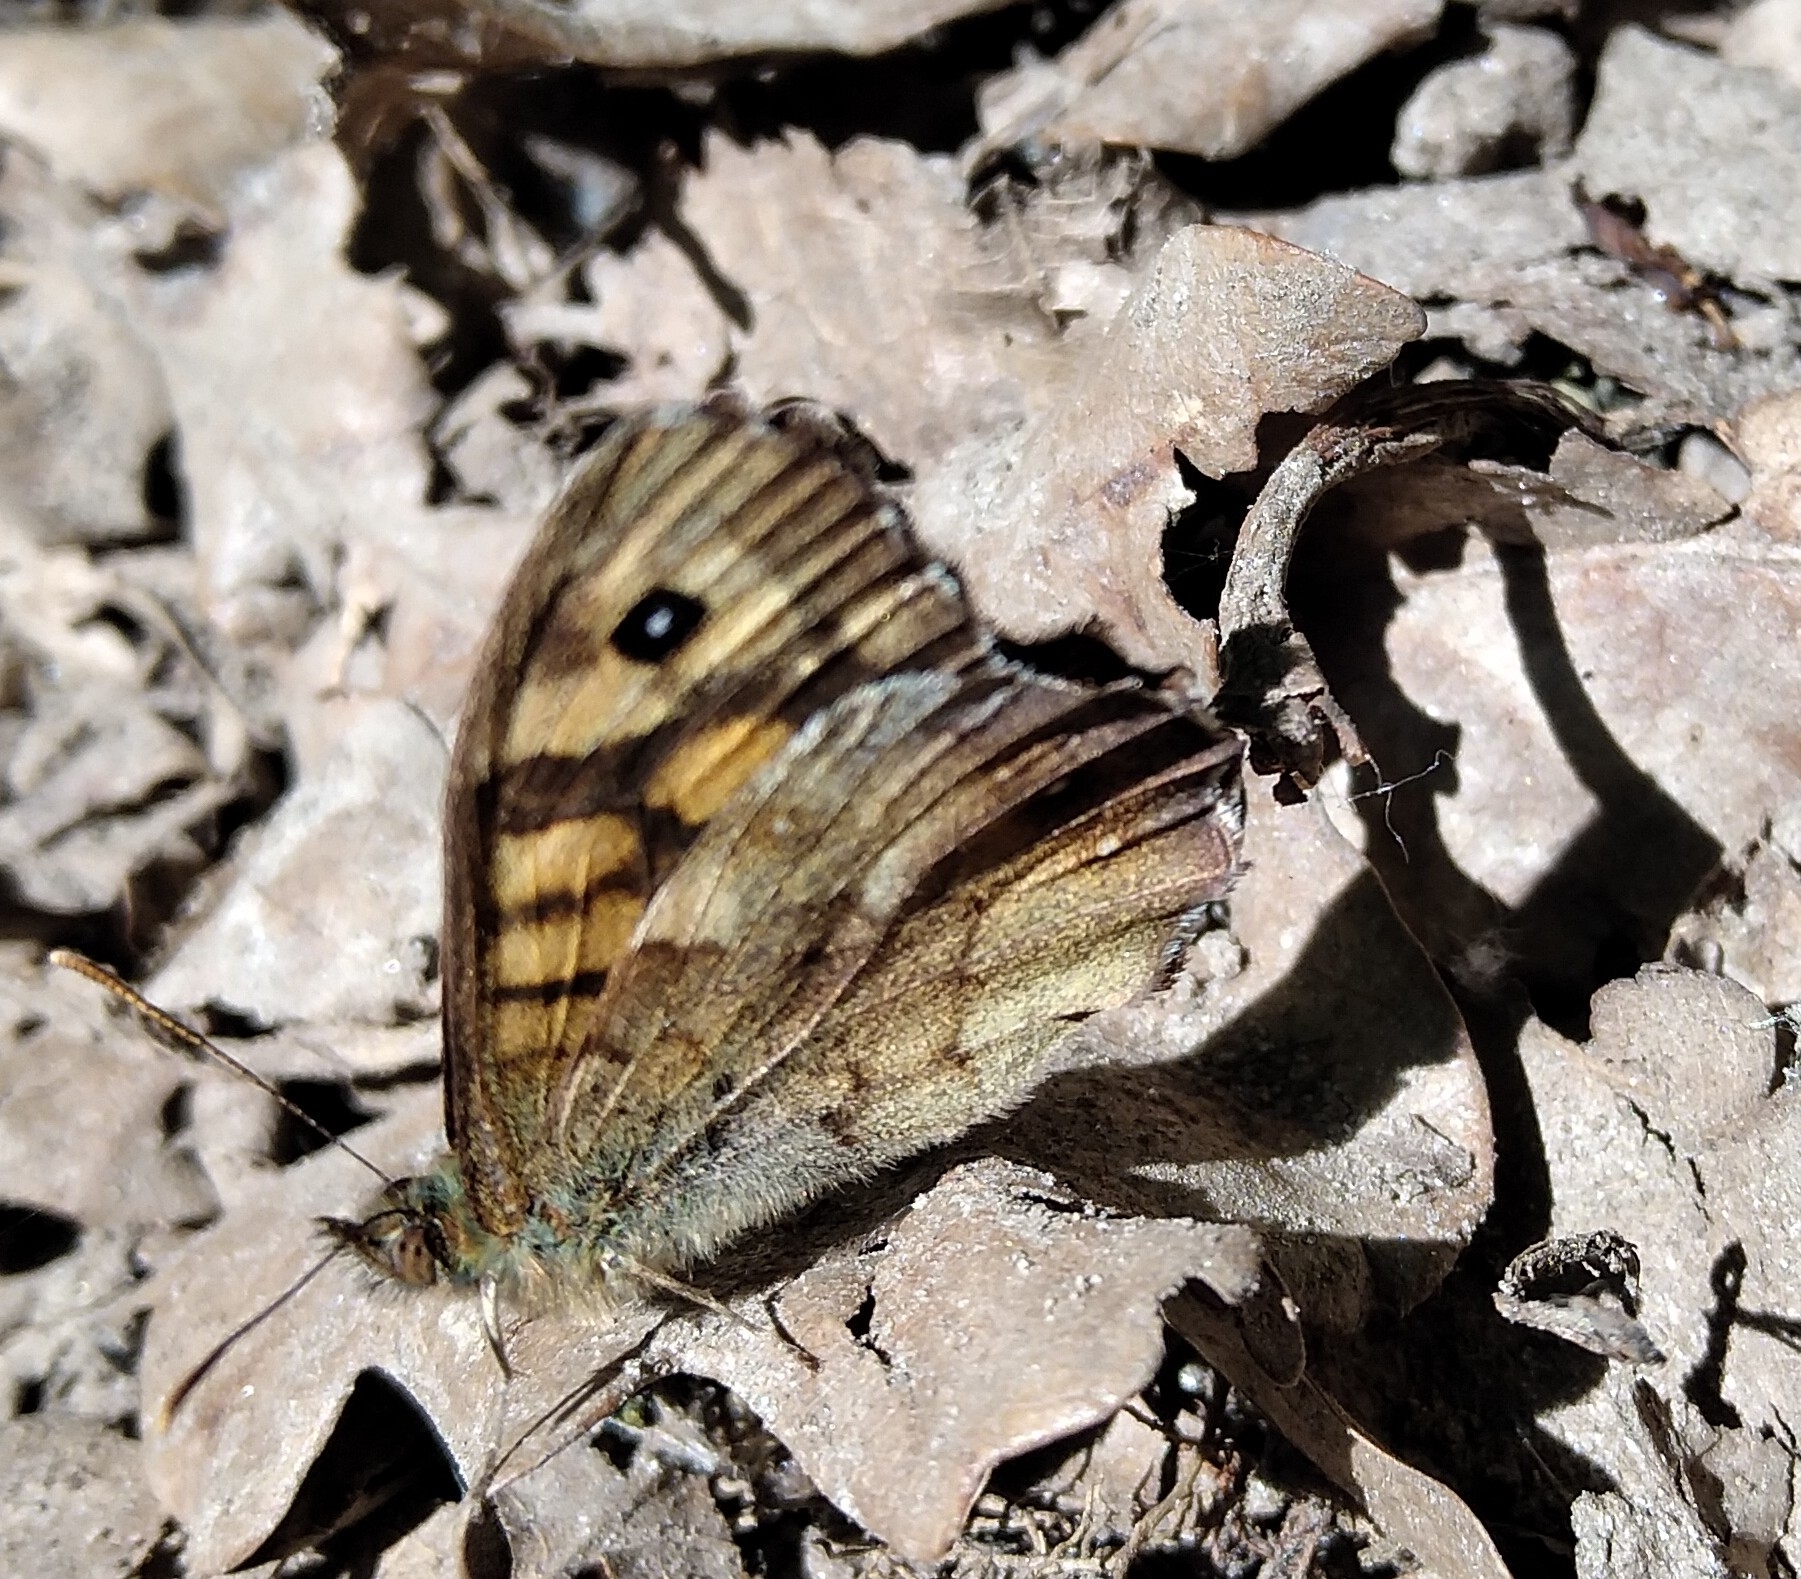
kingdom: Animalia
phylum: Arthropoda
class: Insecta
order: Lepidoptera
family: Nymphalidae
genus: Pararge
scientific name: Pararge aegeria
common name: Speckled wood
